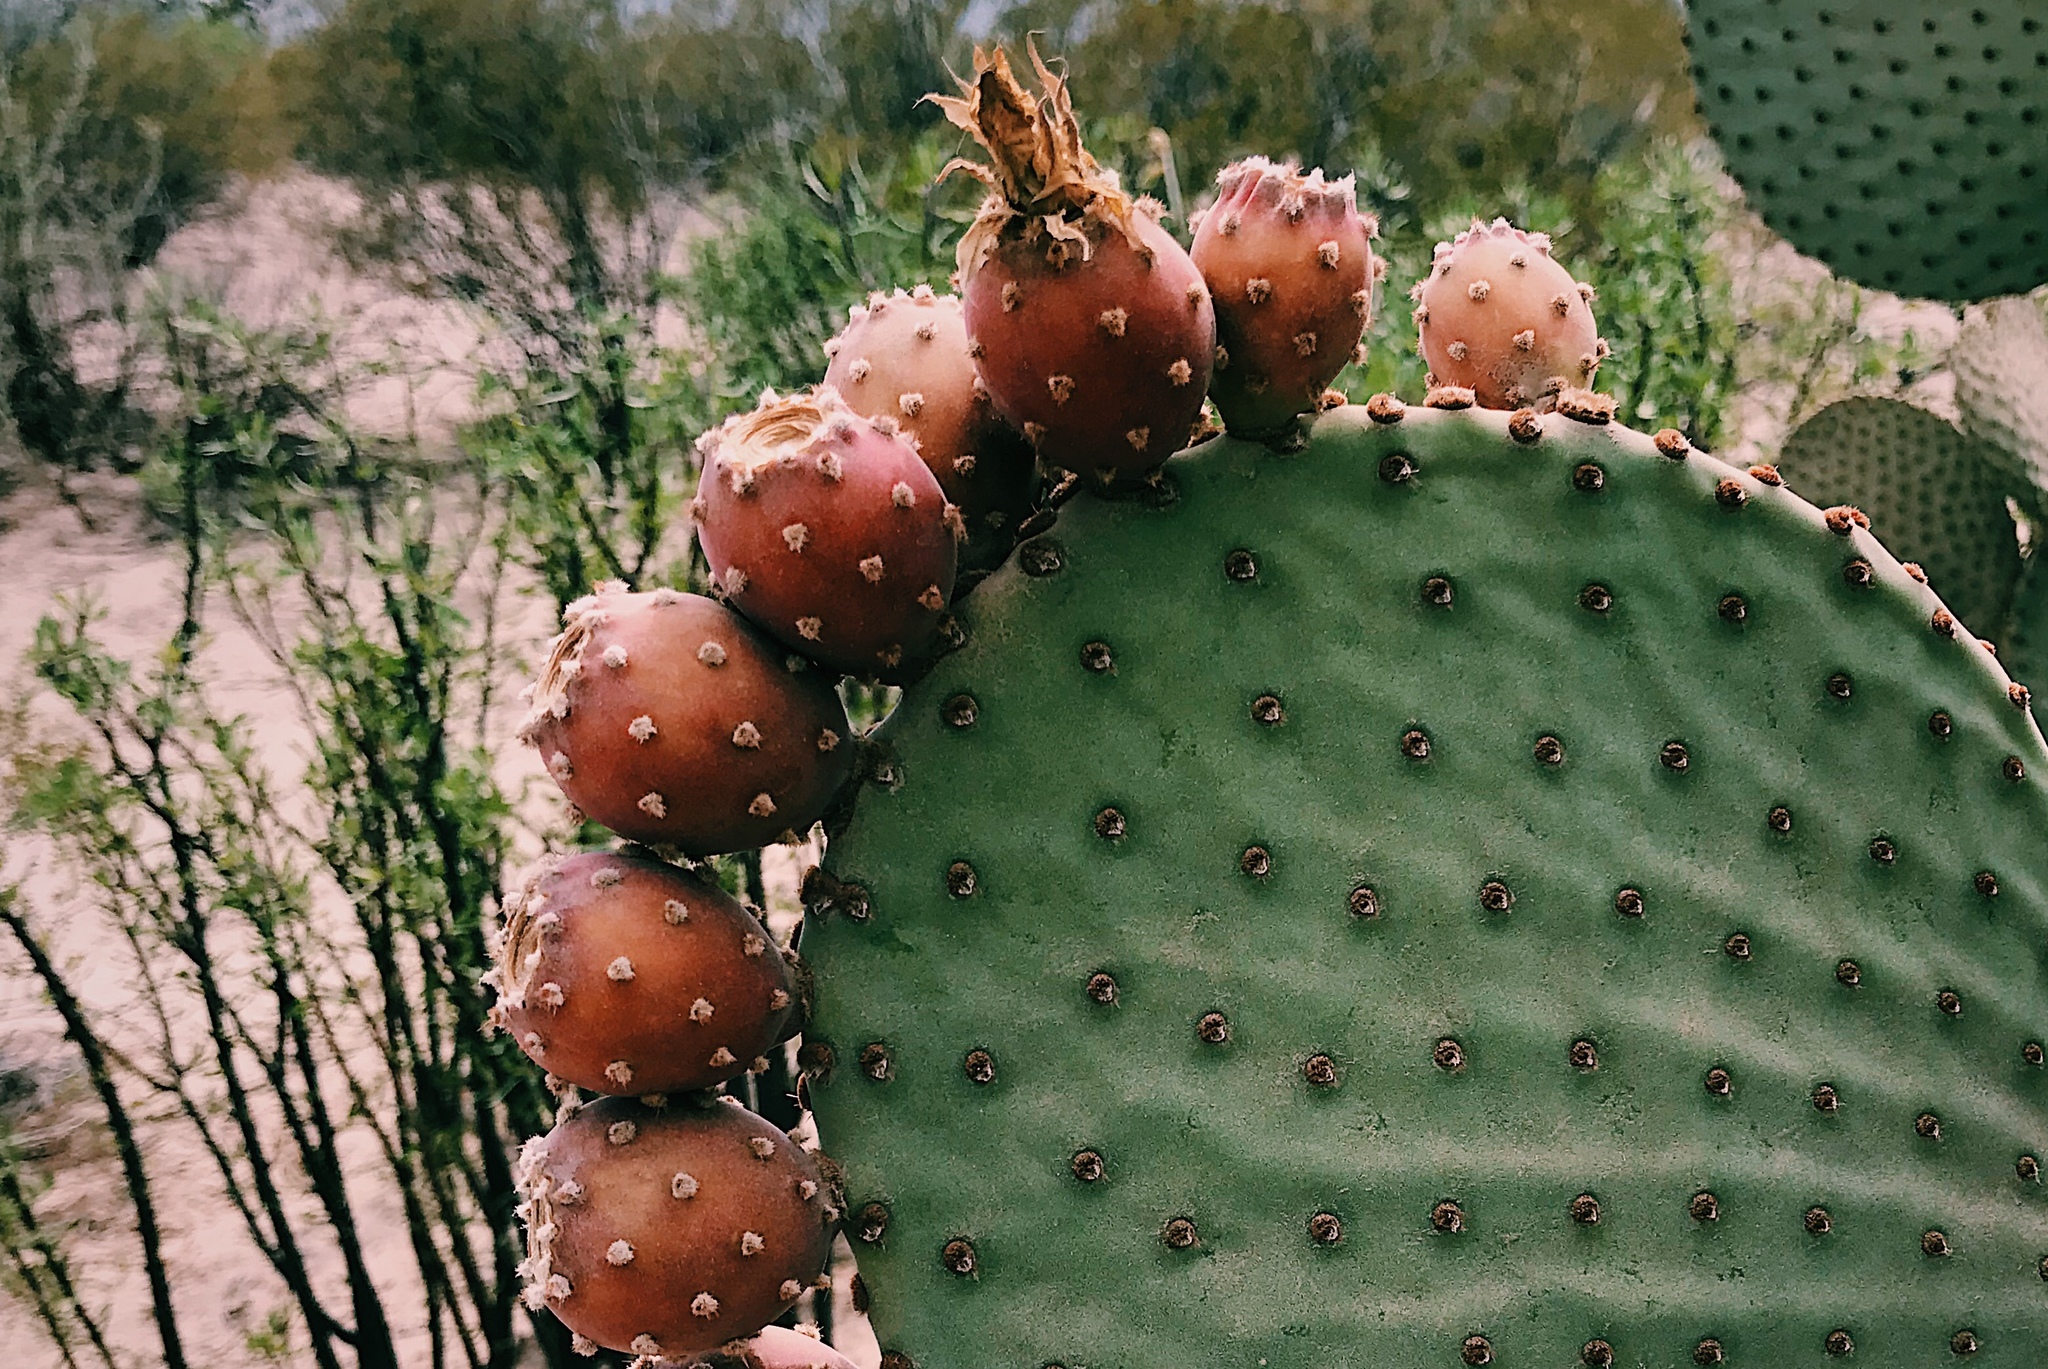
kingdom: Plantae
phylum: Tracheophyta
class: Magnoliopsida
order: Caryophyllales
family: Cactaceae
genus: Opuntia
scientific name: Opuntia rufida
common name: Blind pricklypear
